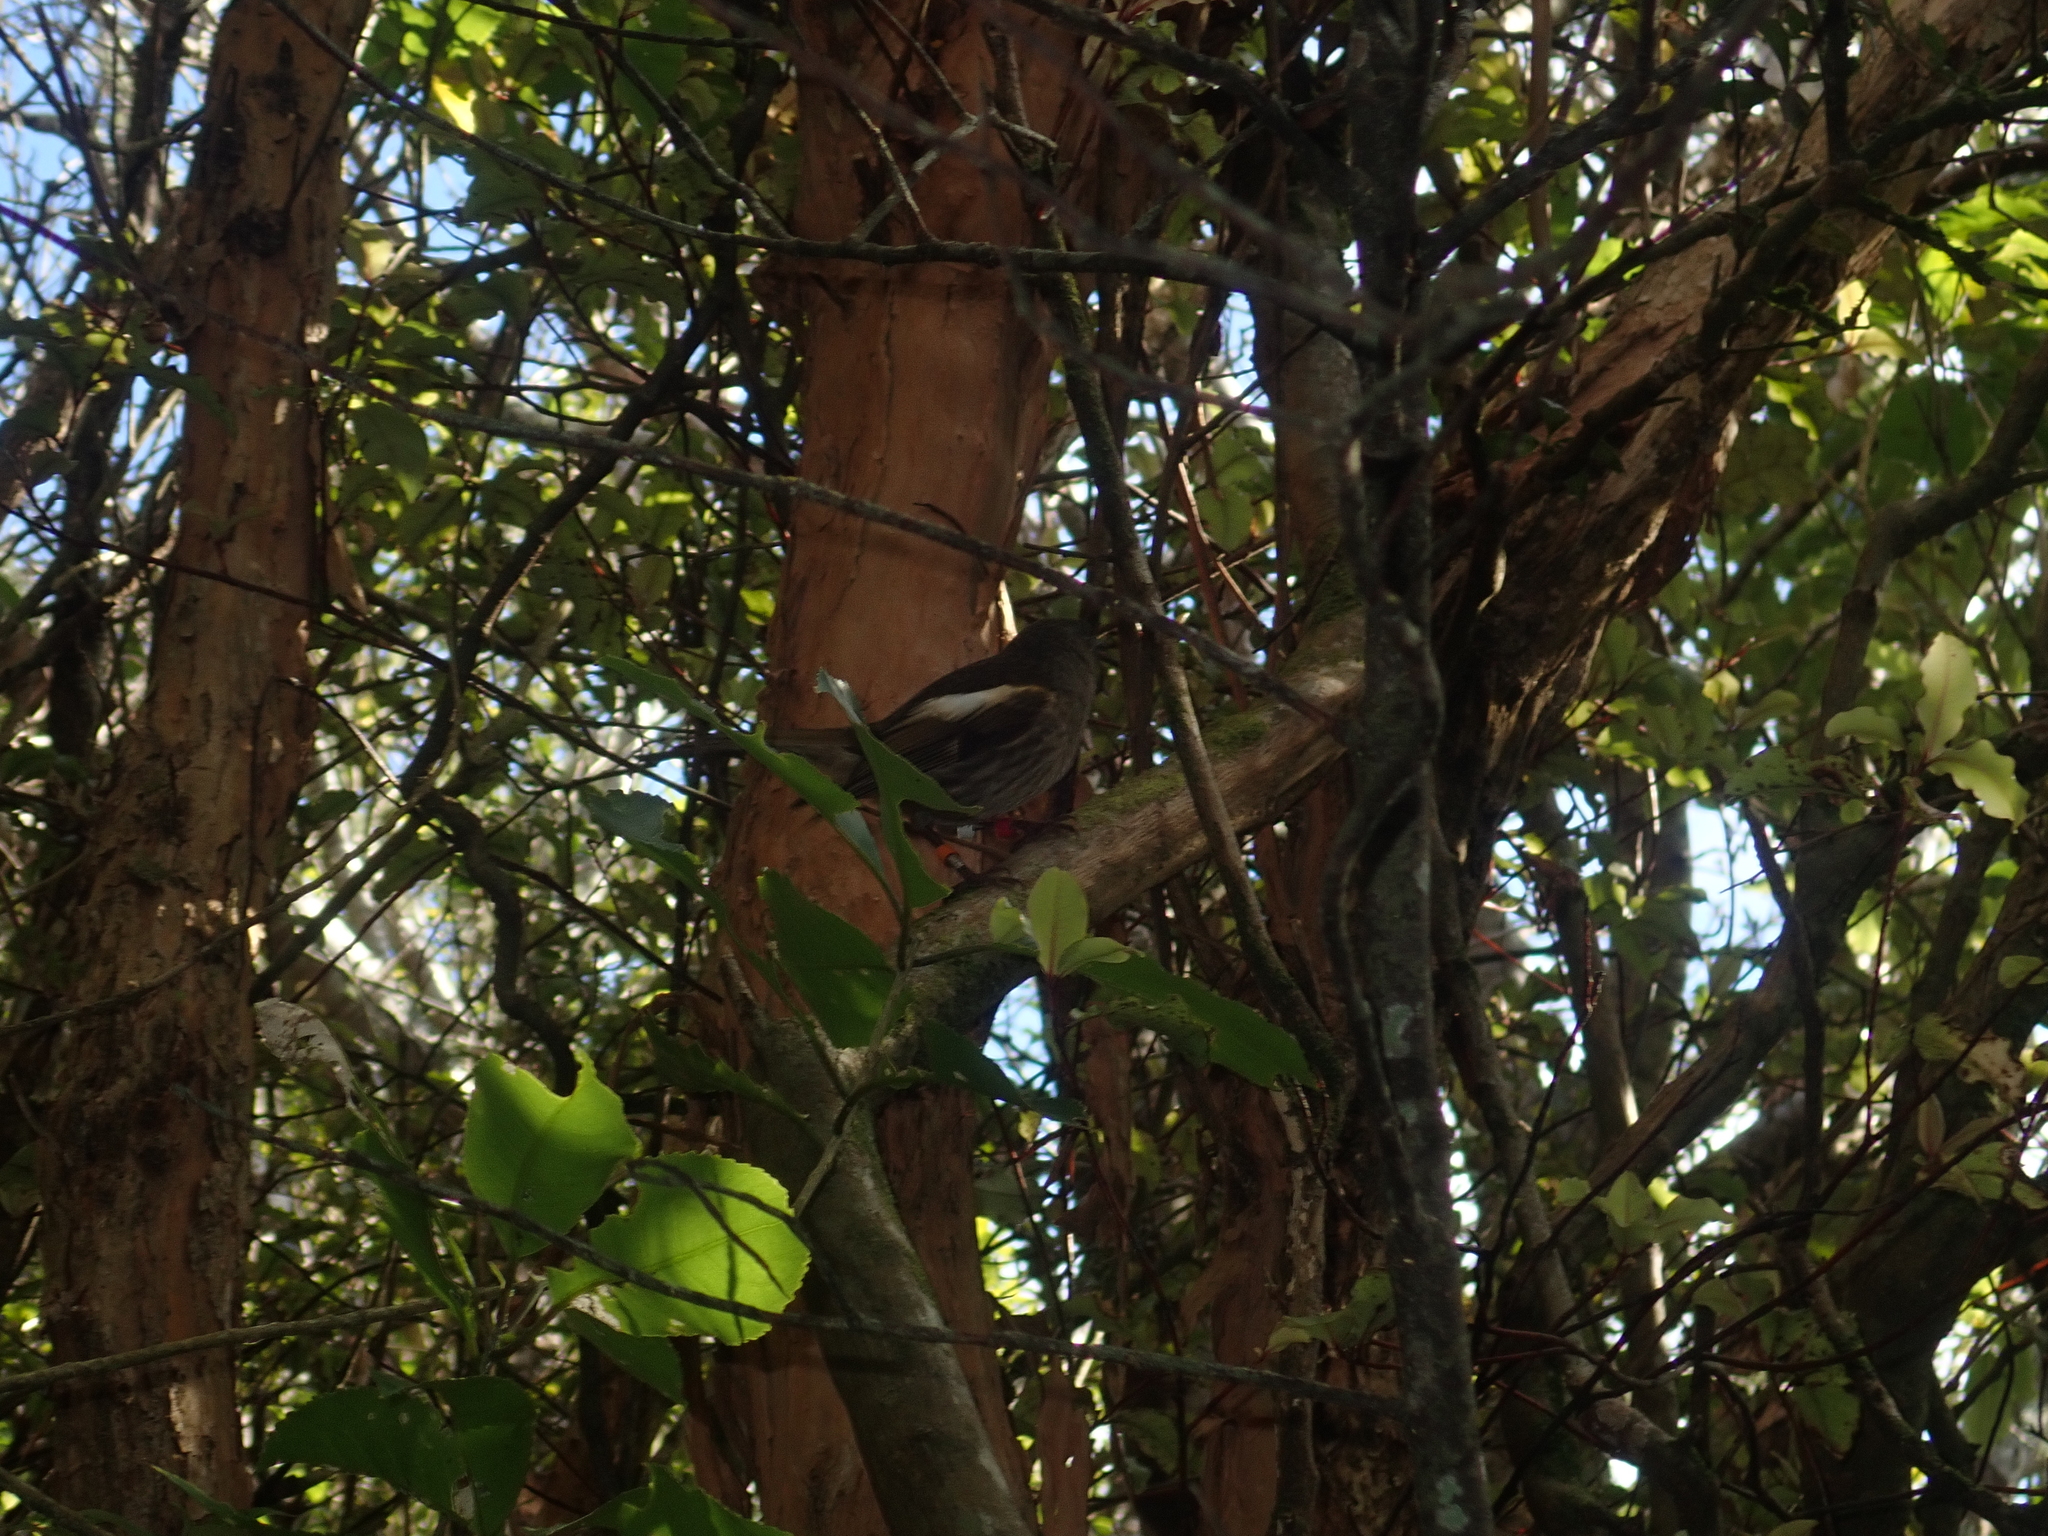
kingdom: Animalia
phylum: Chordata
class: Aves
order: Passeriformes
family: Notiomystidae
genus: Notiomystis
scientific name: Notiomystis cincta
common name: Stitchbird
